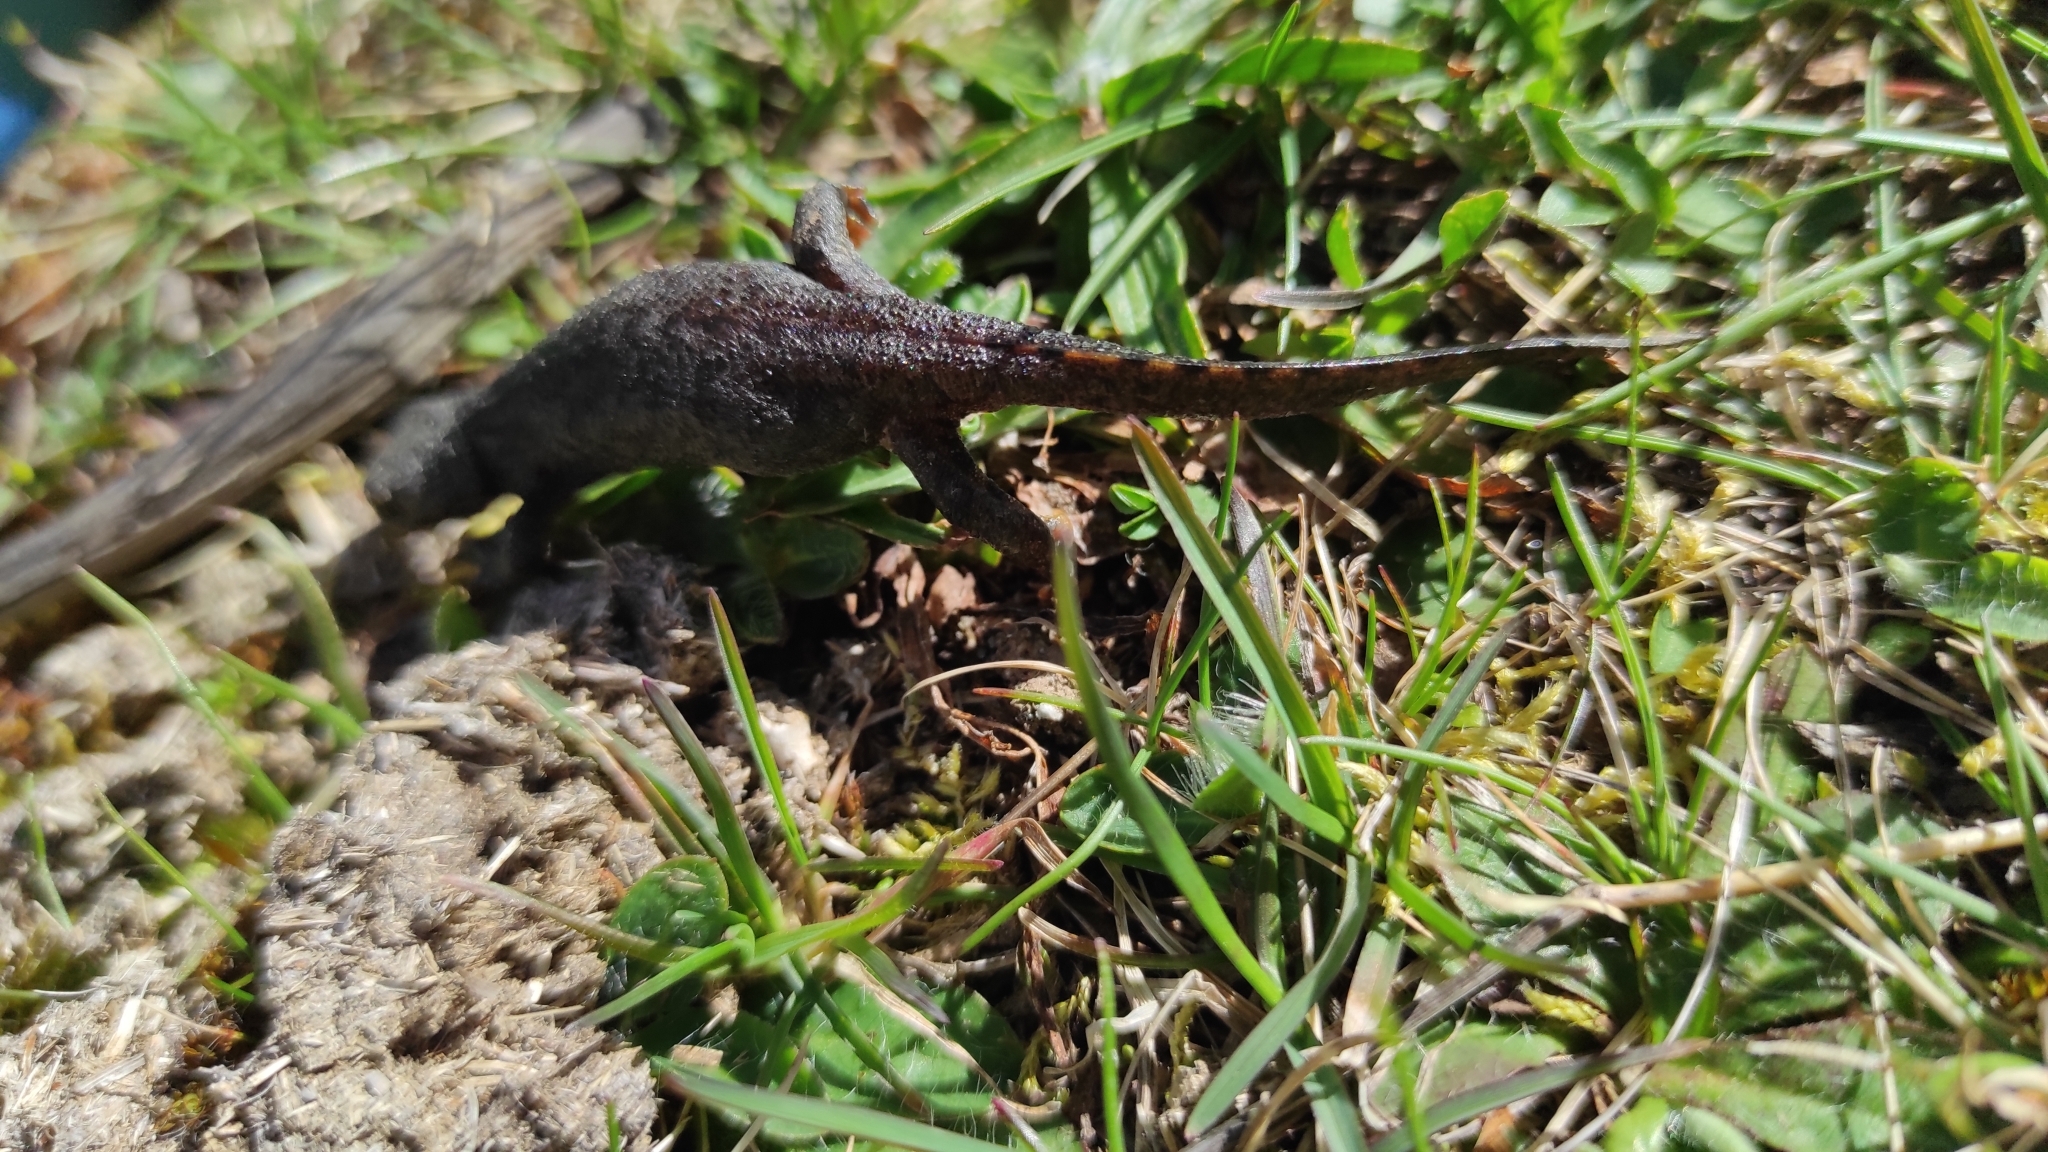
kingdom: Animalia
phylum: Chordata
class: Amphibia
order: Caudata
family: Salamandridae
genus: Ichthyosaura
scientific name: Ichthyosaura alpestris
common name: Alpine newt
